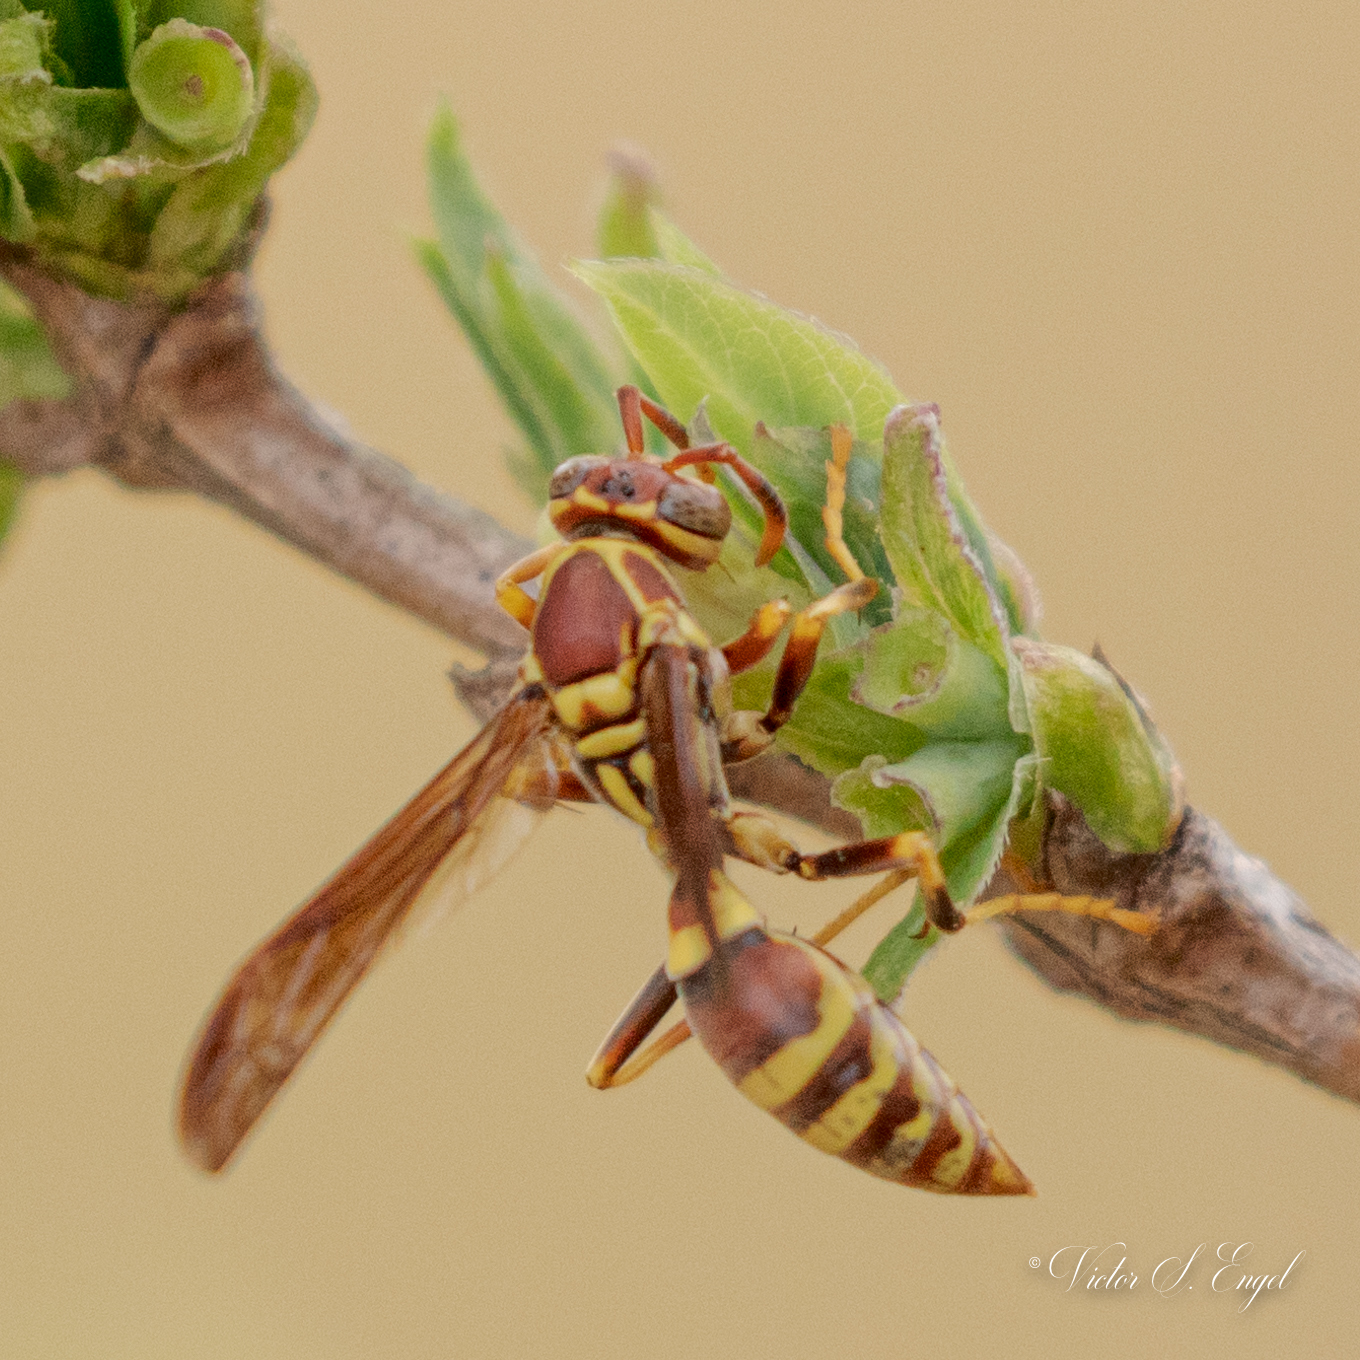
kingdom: Animalia
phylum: Arthropoda
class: Insecta
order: Hymenoptera
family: Eumenidae
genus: Polistes
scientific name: Polistes exclamans
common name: Paper wasp
